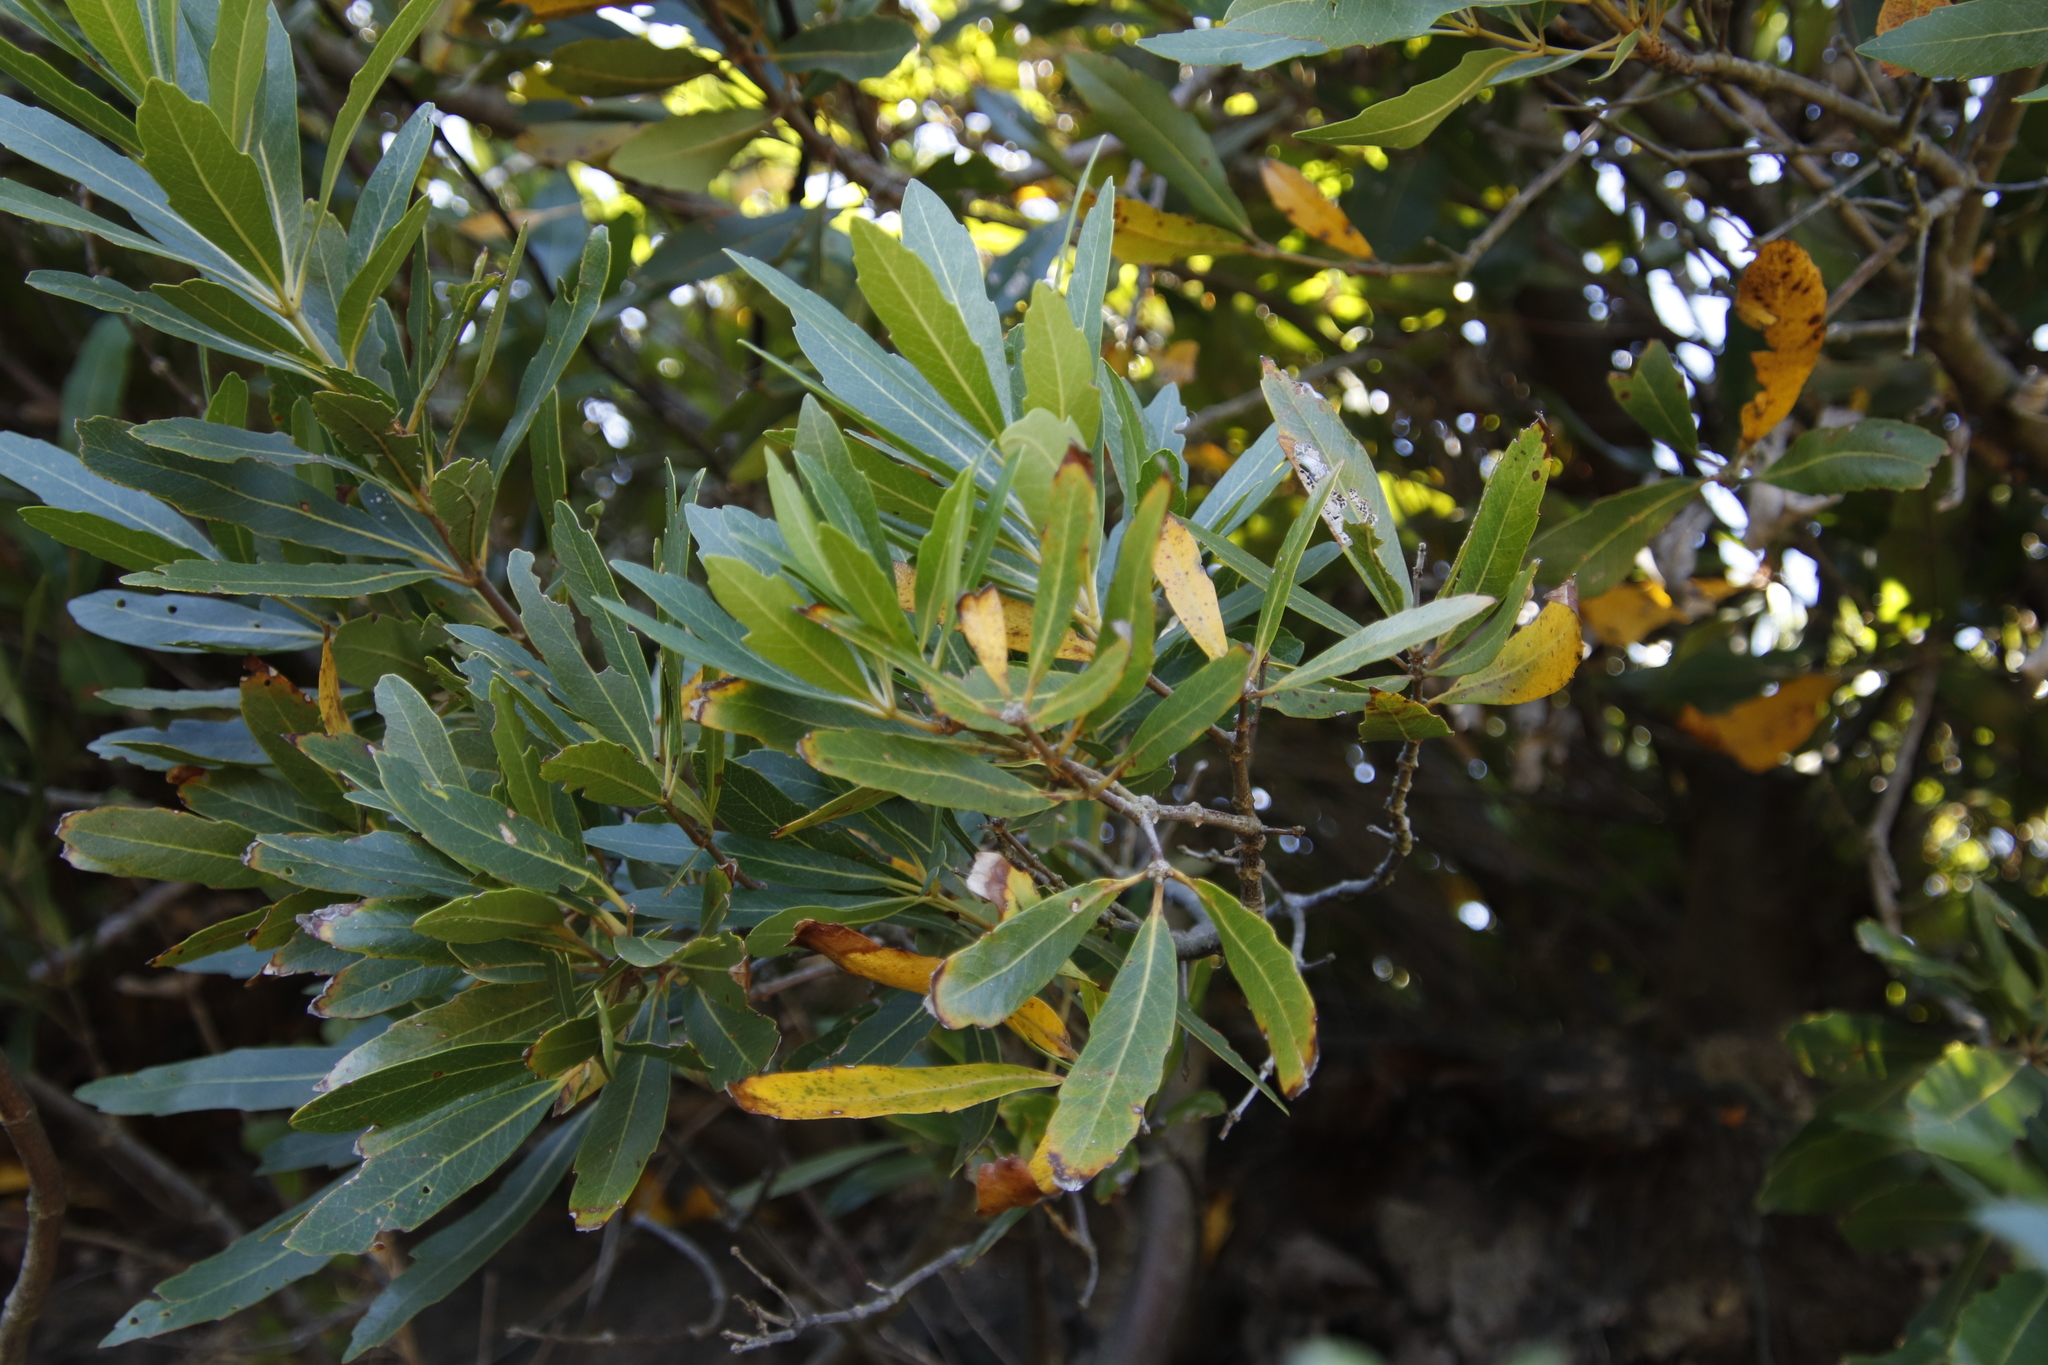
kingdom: Plantae
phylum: Tracheophyta
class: Magnoliopsida
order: Proteales
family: Proteaceae
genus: Brabejum
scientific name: Brabejum stellatifolium
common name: Wild almond
